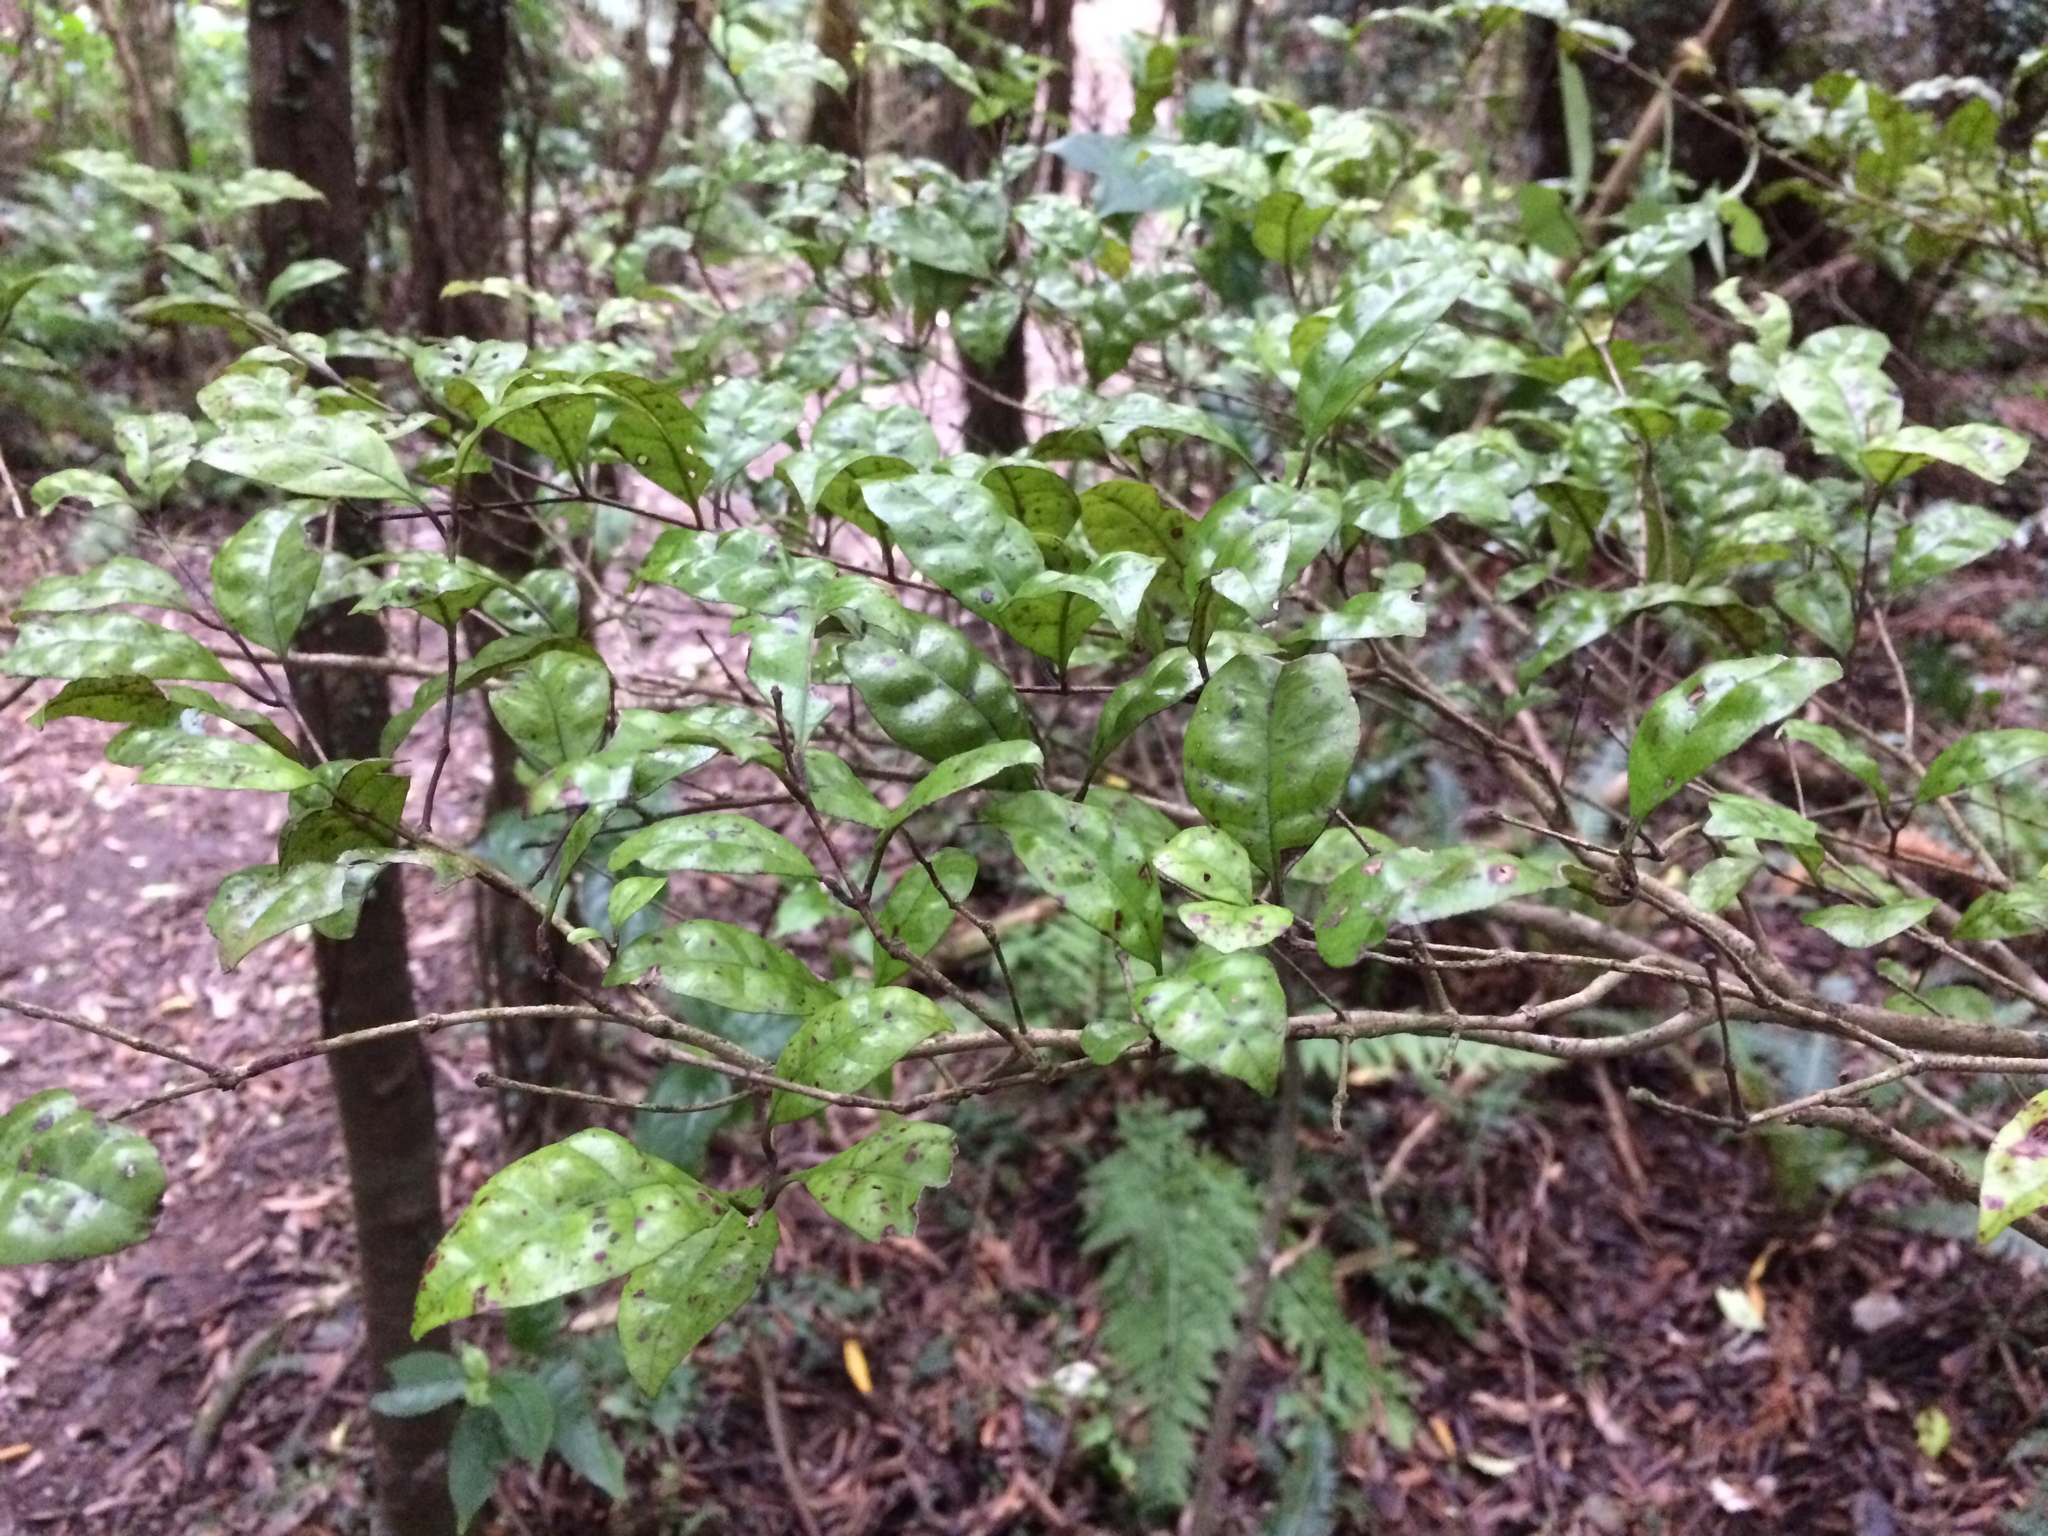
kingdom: Plantae
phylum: Tracheophyta
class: Magnoliopsida
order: Myrtales
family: Myrtaceae
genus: Lophomyrtus
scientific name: Lophomyrtus bullata
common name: Rama rama
